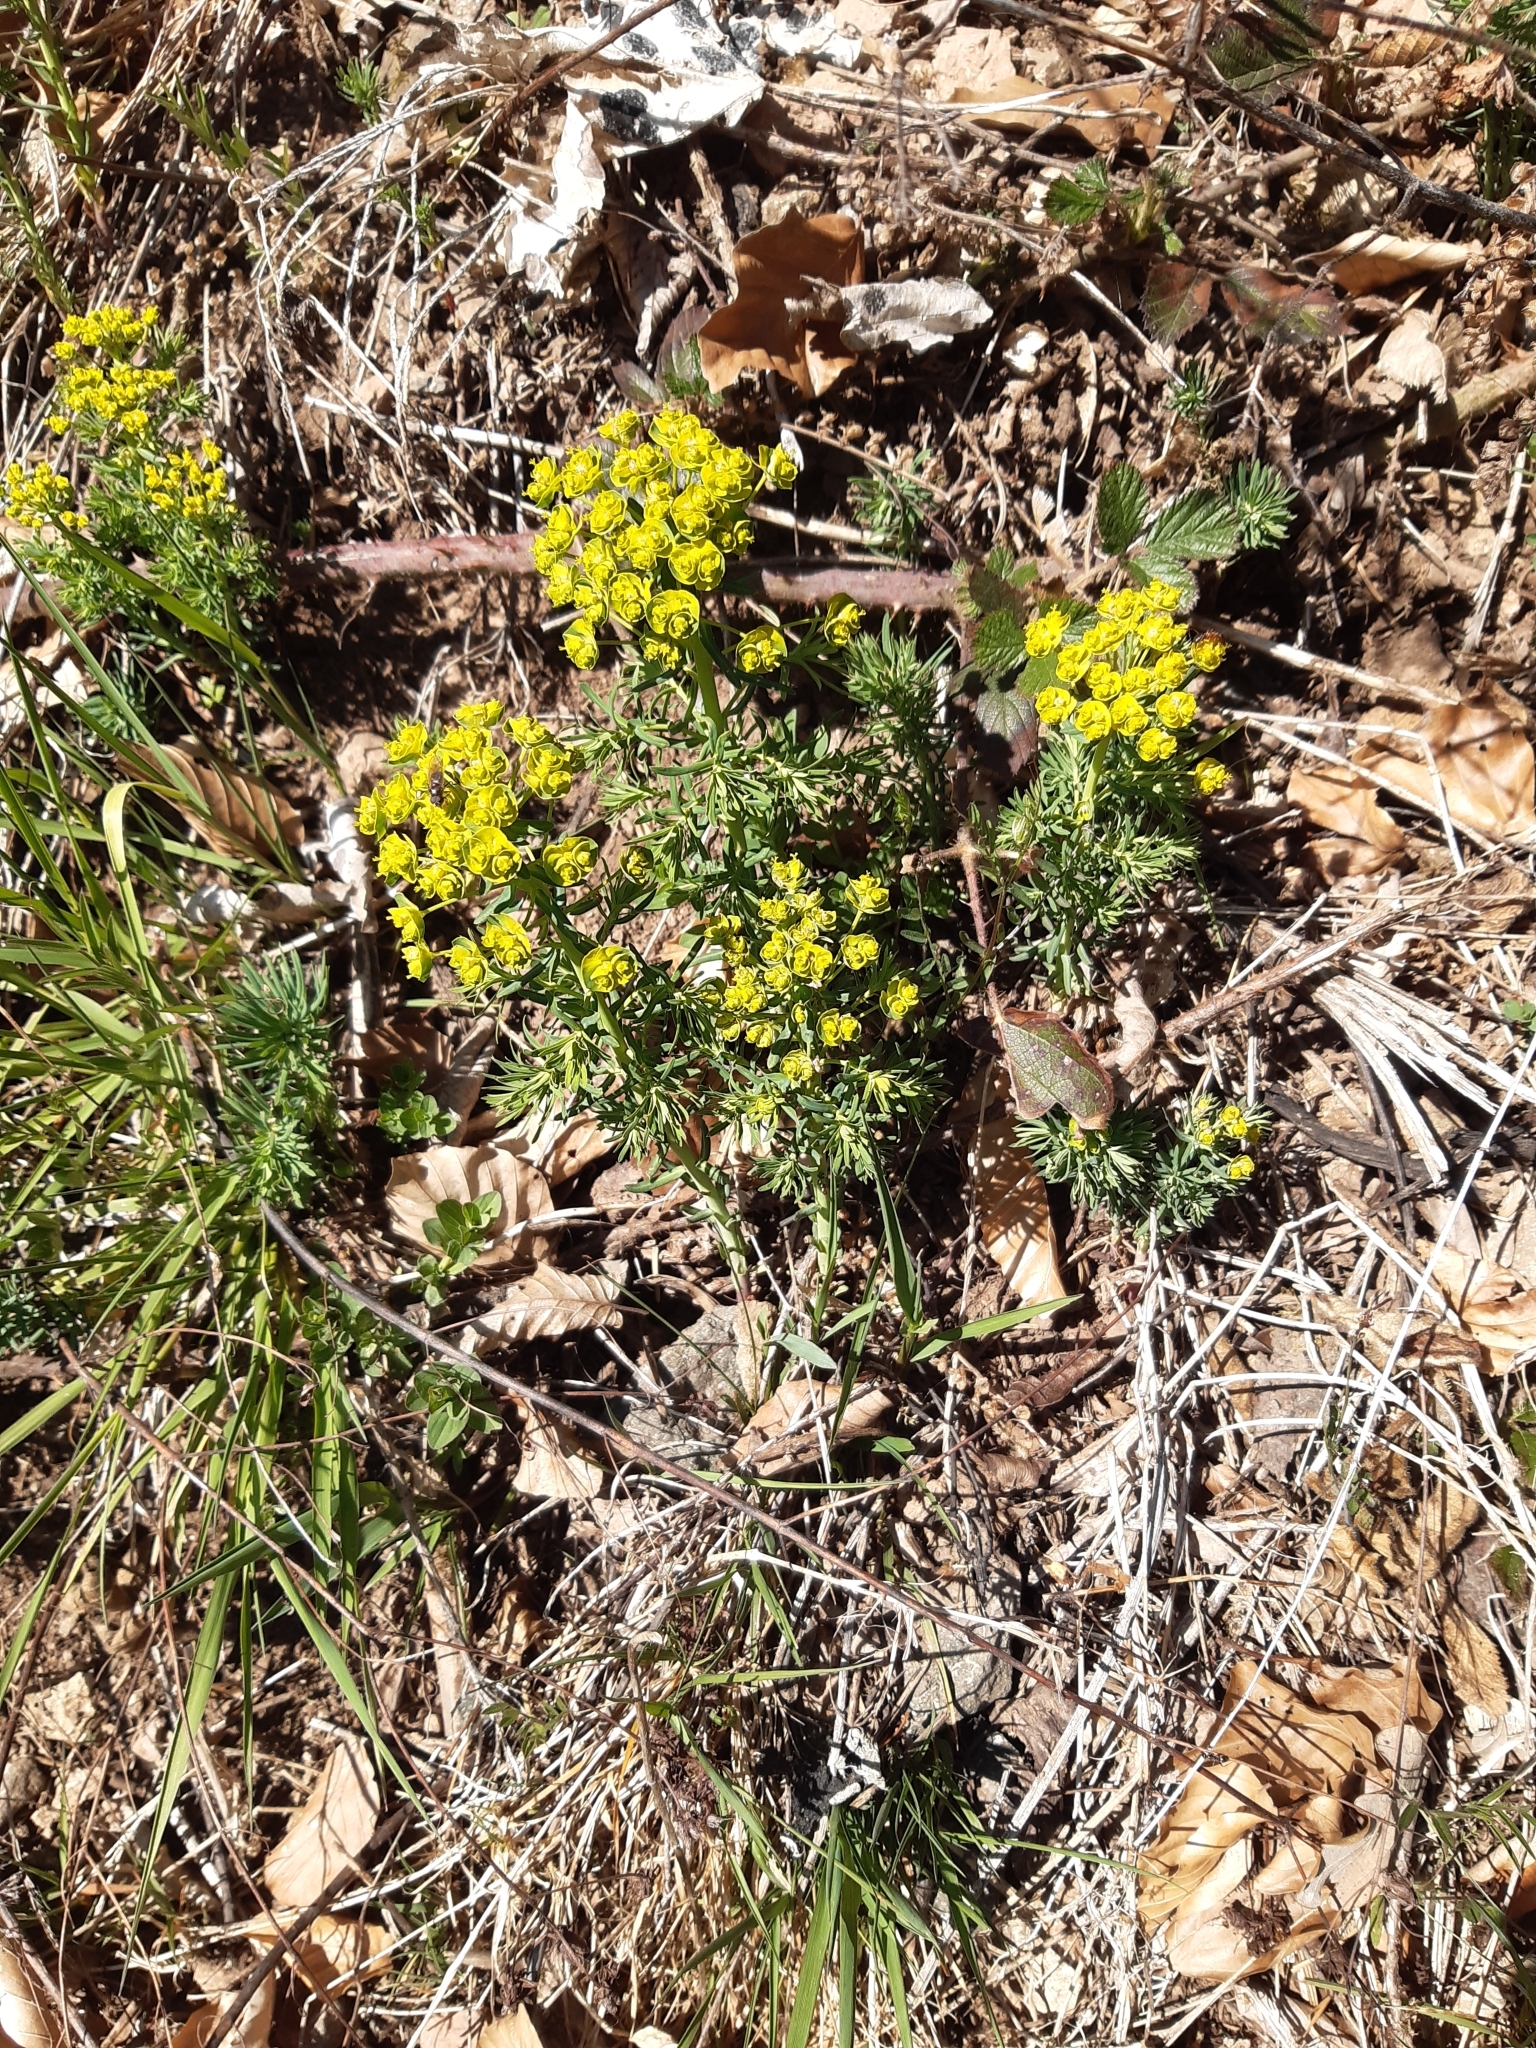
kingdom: Plantae
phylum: Tracheophyta
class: Magnoliopsida
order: Malpighiales
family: Euphorbiaceae
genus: Euphorbia
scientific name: Euphorbia cyparissias
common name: Cypress spurge
